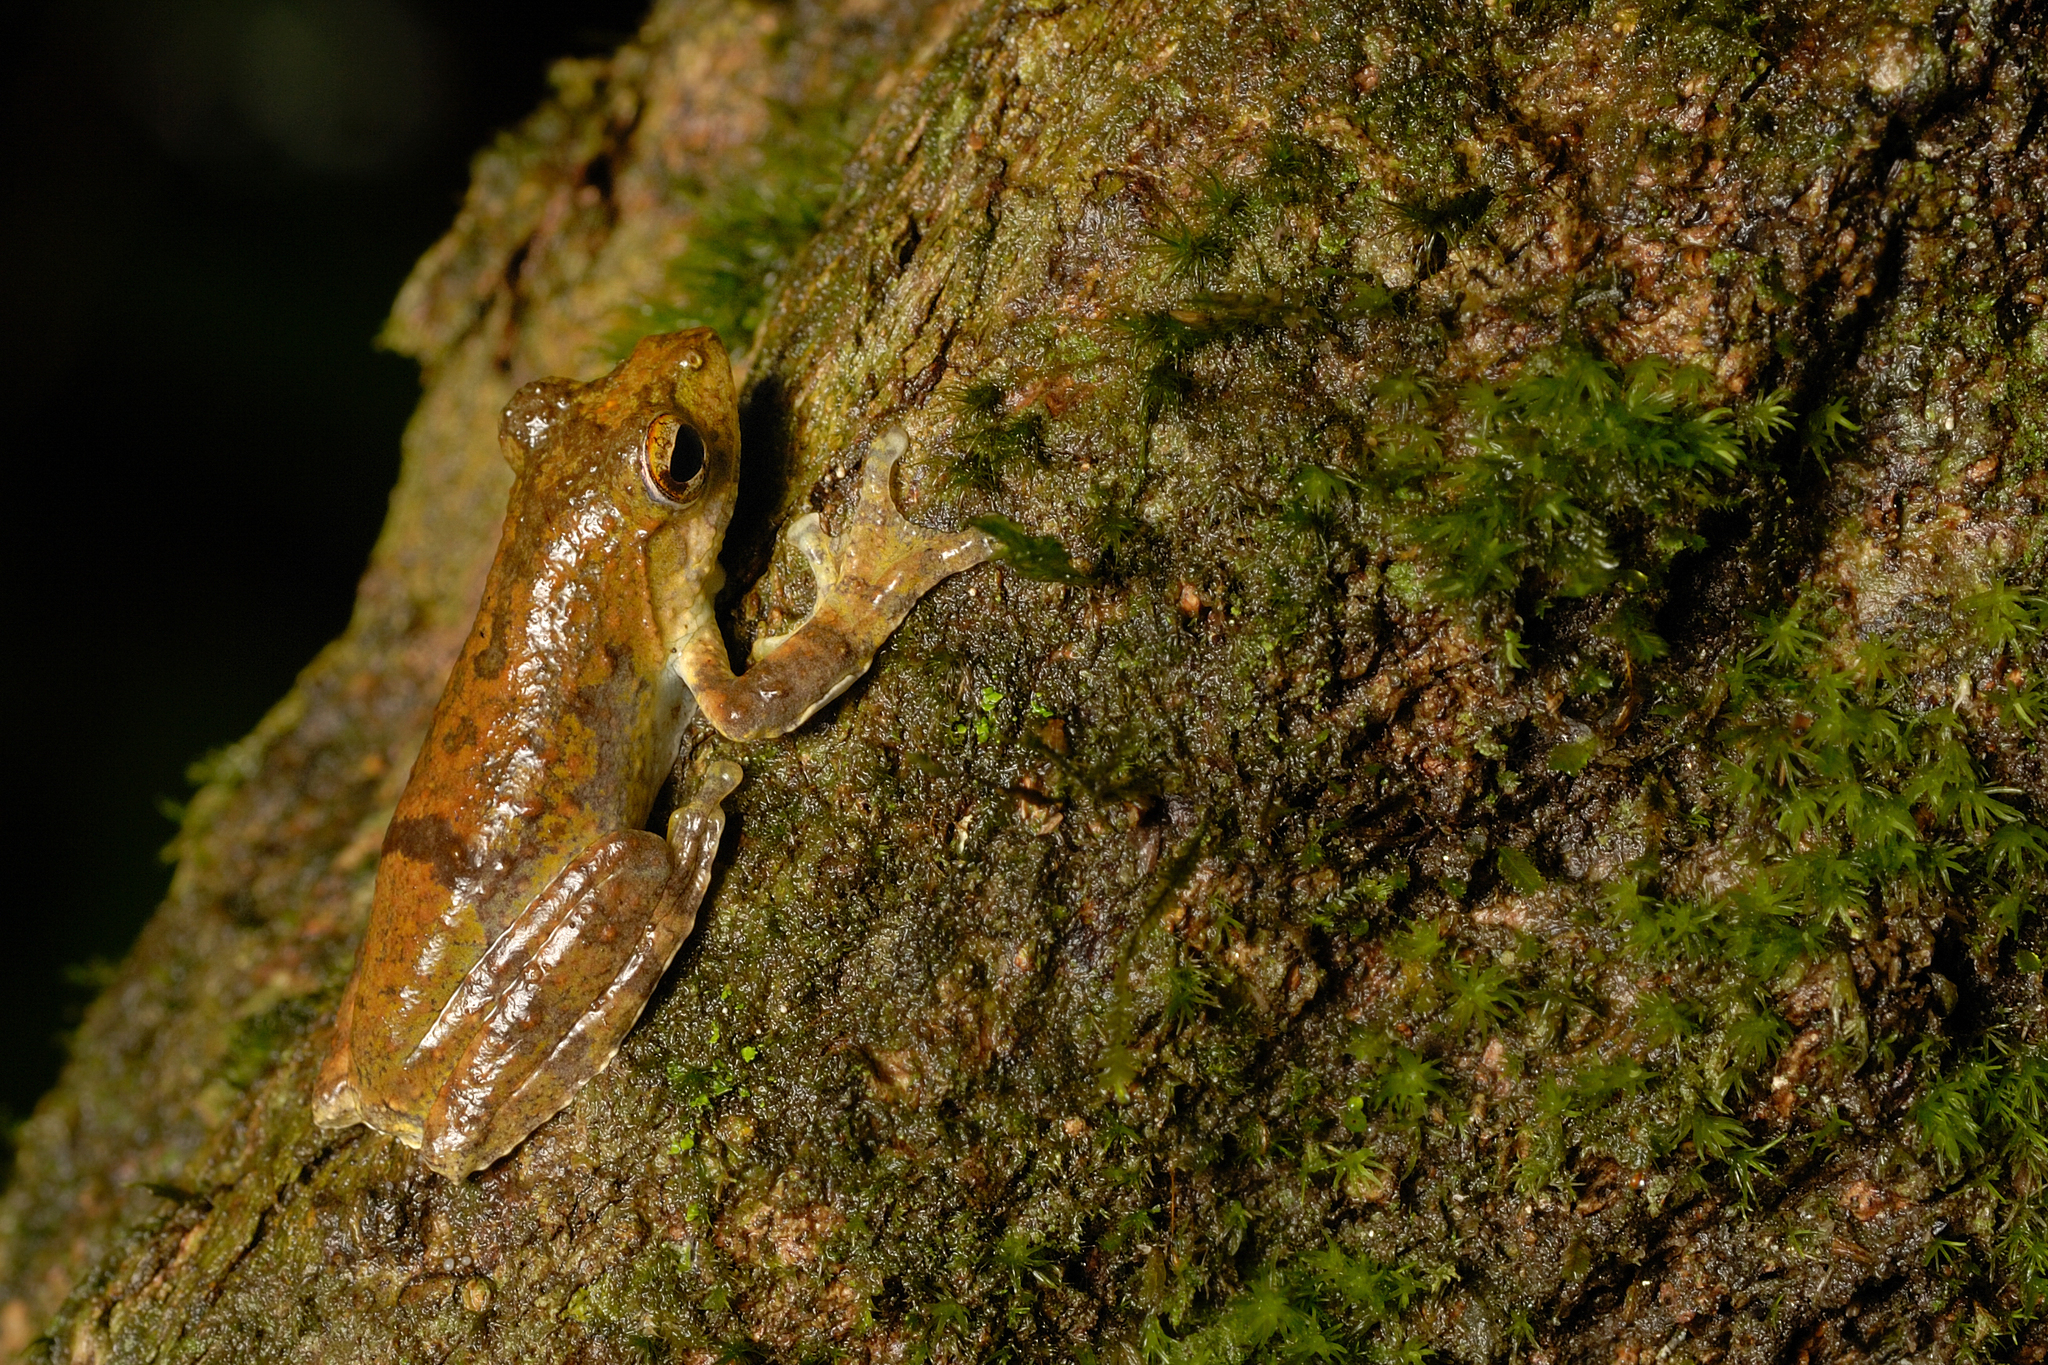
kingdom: Animalia
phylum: Chordata
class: Amphibia
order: Anura
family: Rhacophoridae
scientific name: Rhacophoridae
